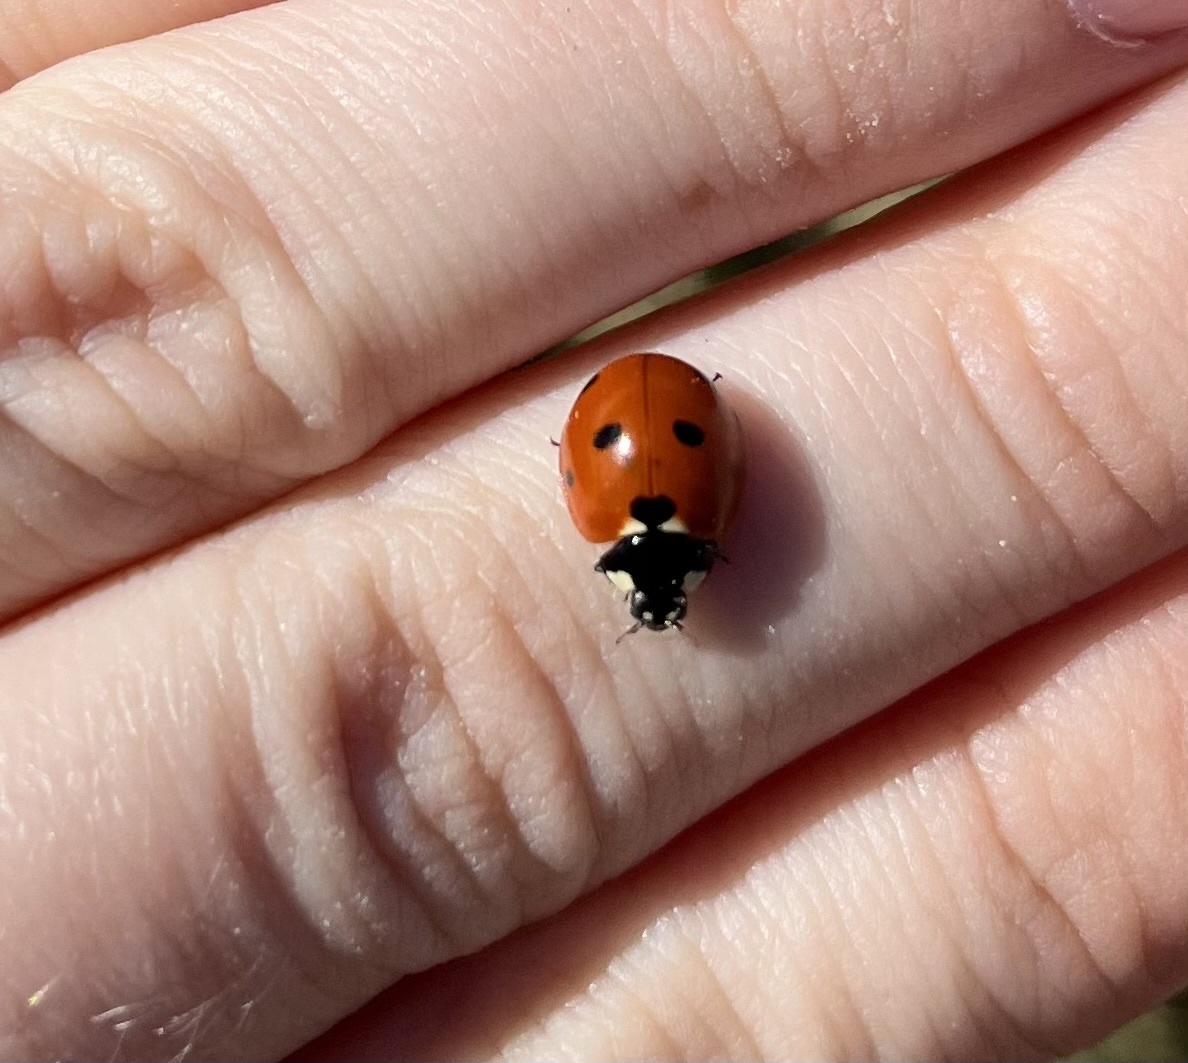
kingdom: Animalia
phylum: Arthropoda
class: Insecta
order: Coleoptera
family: Coccinellidae
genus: Coccinella
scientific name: Coccinella septempunctata
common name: Sevenspotted lady beetle
